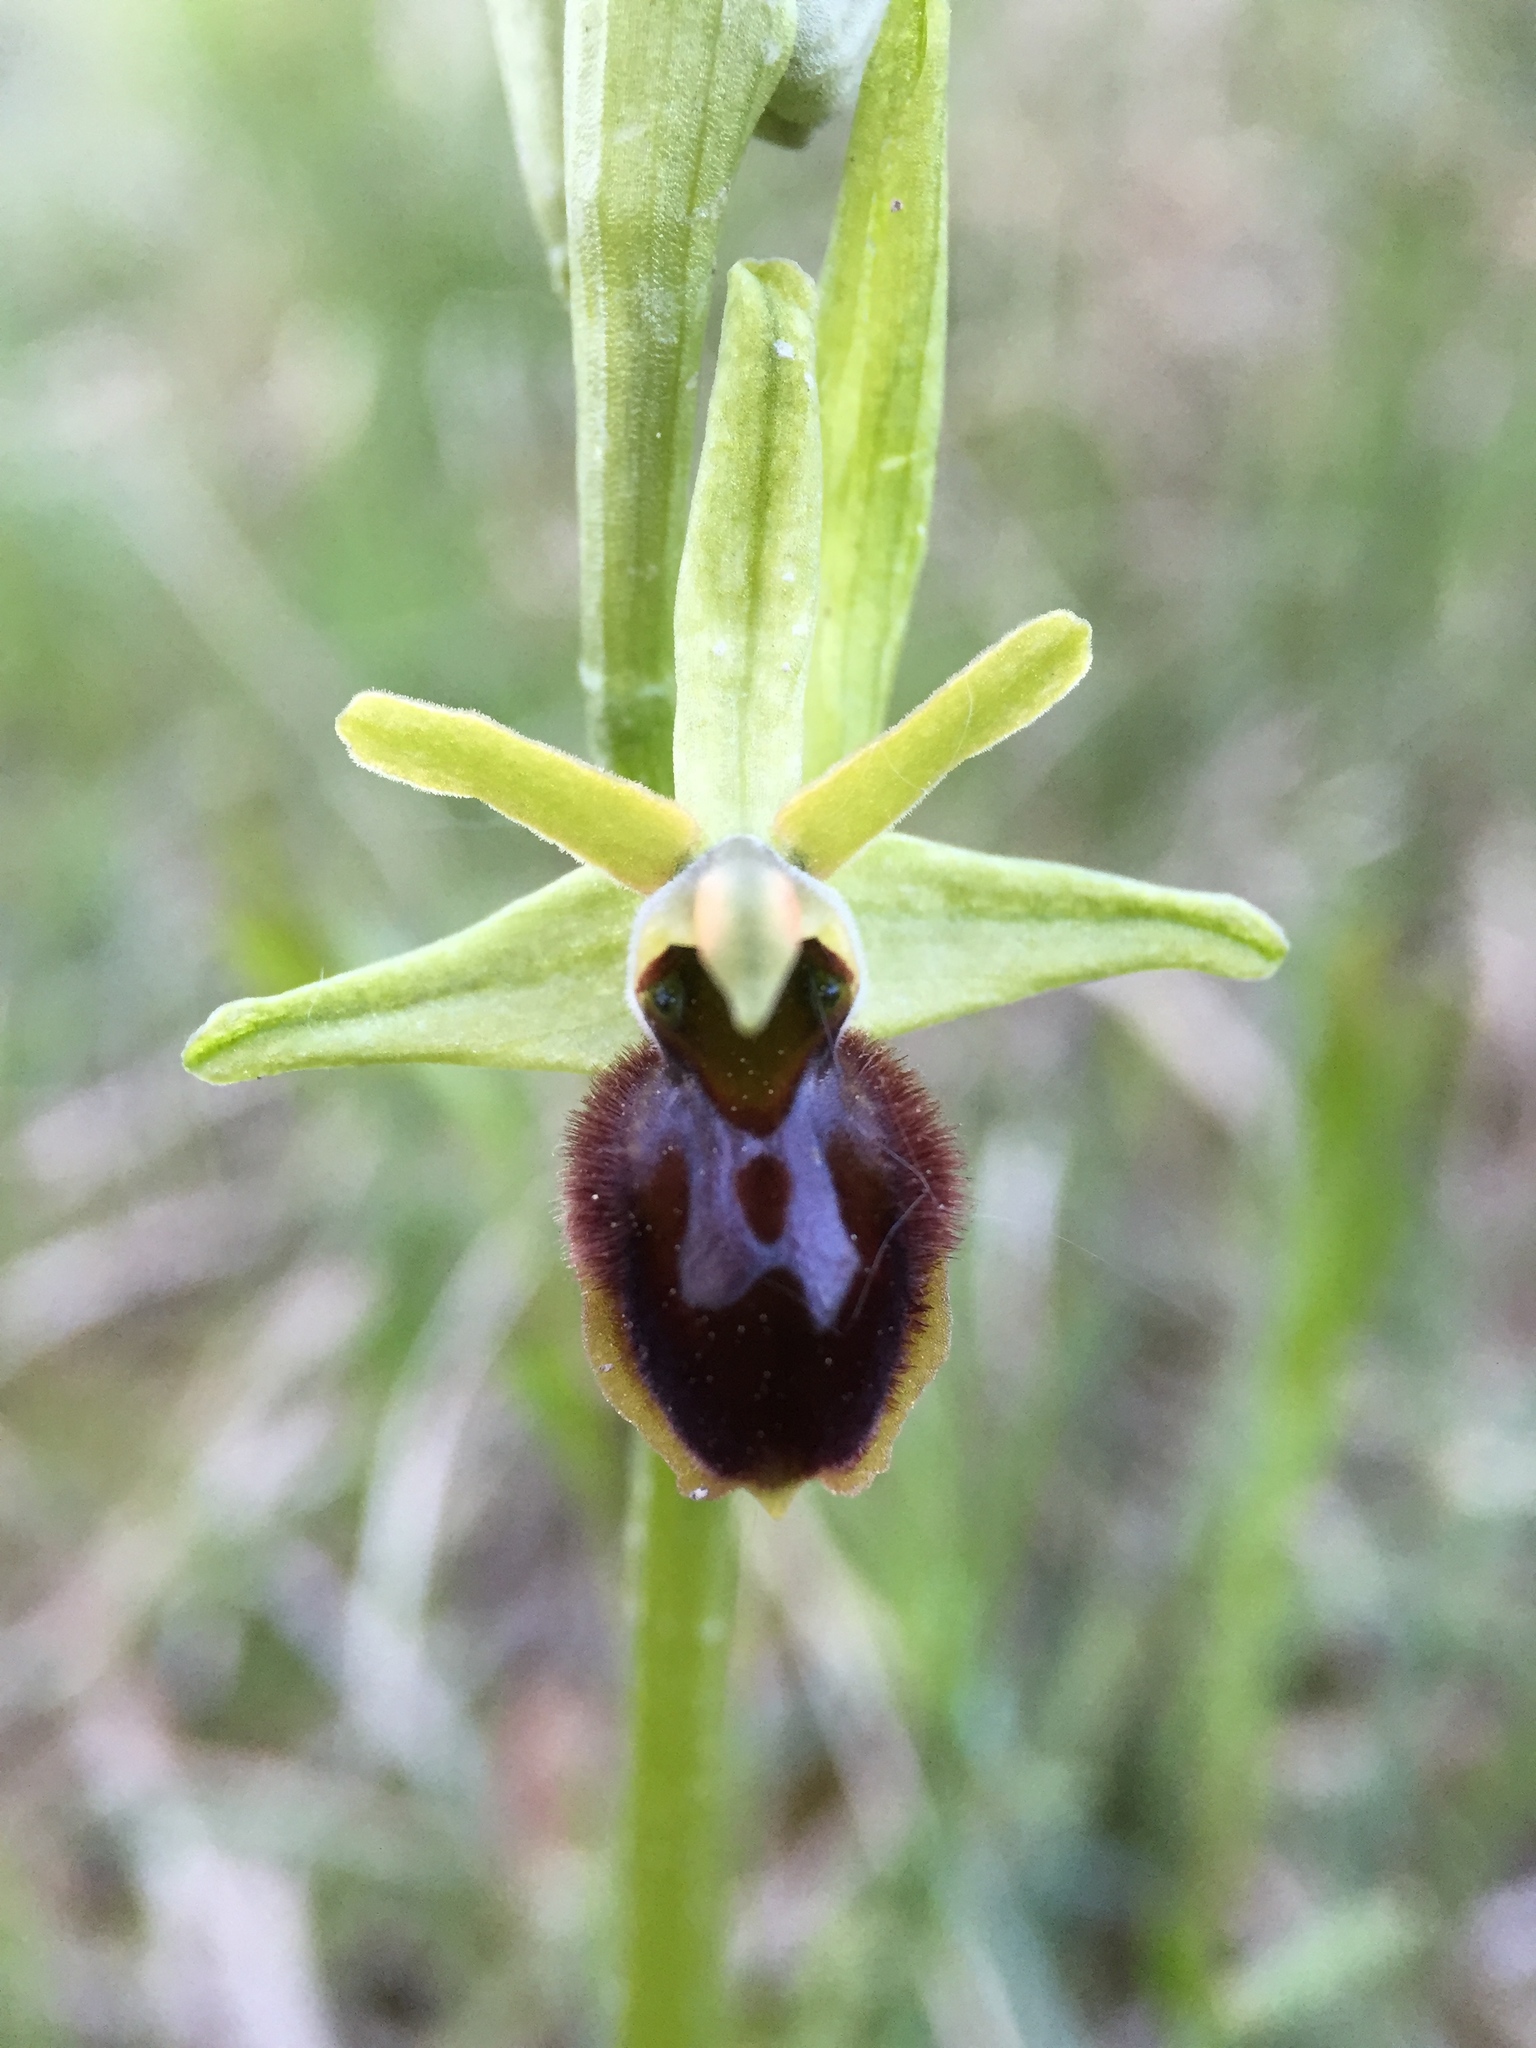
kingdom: Plantae
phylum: Tracheophyta
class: Liliopsida
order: Asparagales
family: Orchidaceae
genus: Ophrys
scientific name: Ophrys sphegodes
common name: Early spider-orchid
